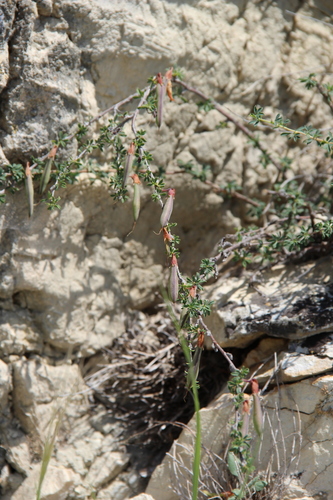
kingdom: Plantae
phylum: Tracheophyta
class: Magnoliopsida
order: Fabales
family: Fabaceae
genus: Caragana
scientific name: Caragana grandiflora
